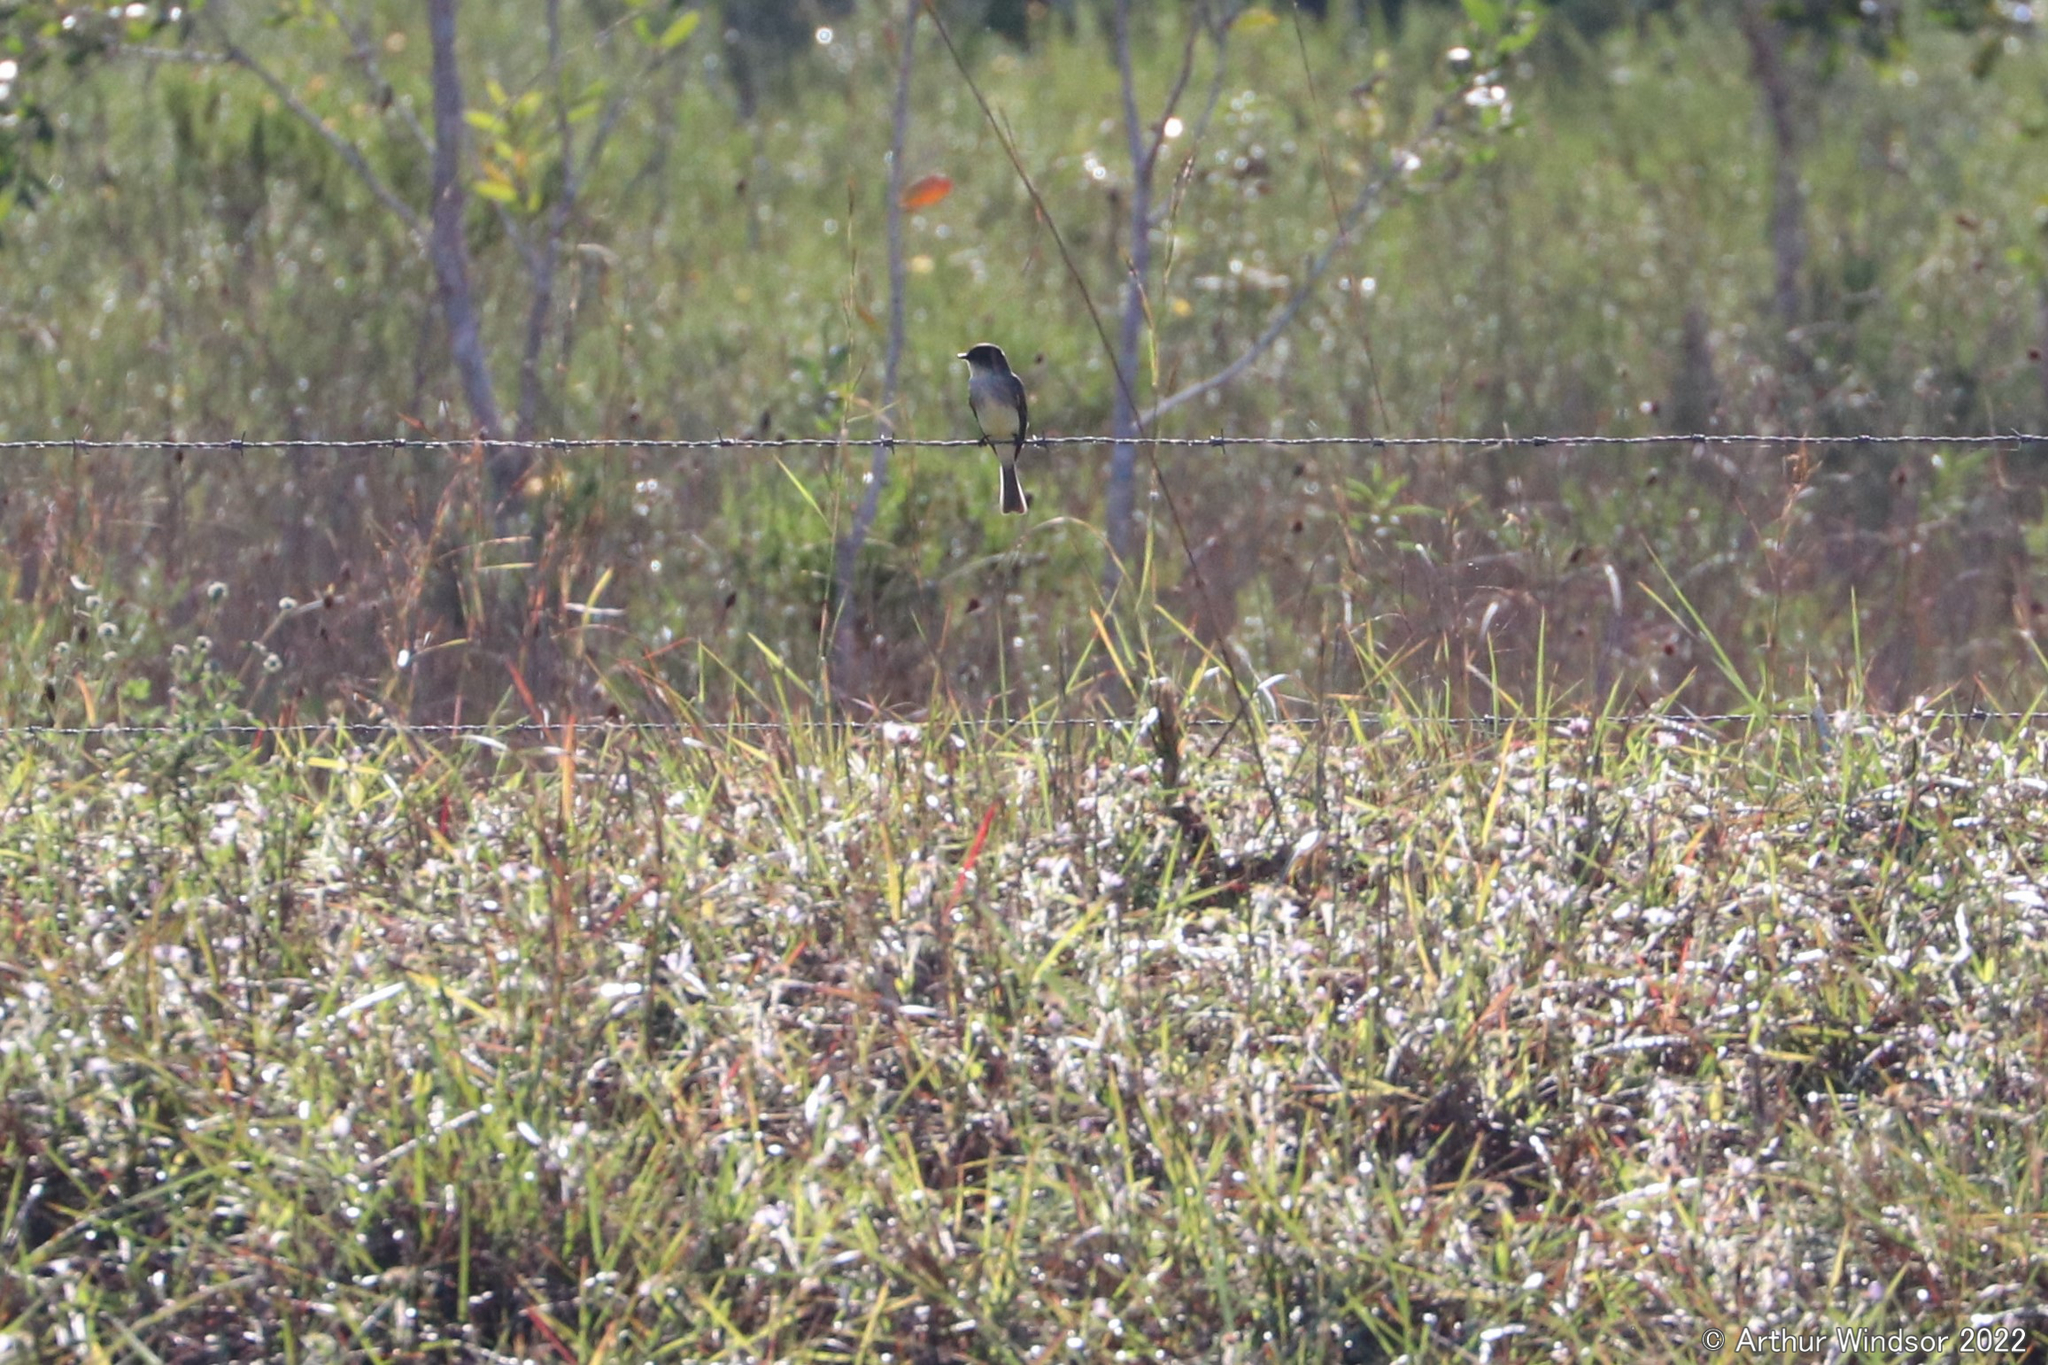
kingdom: Animalia
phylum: Chordata
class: Aves
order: Passeriformes
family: Tyrannidae
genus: Sayornis
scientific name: Sayornis phoebe
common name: Eastern phoebe
